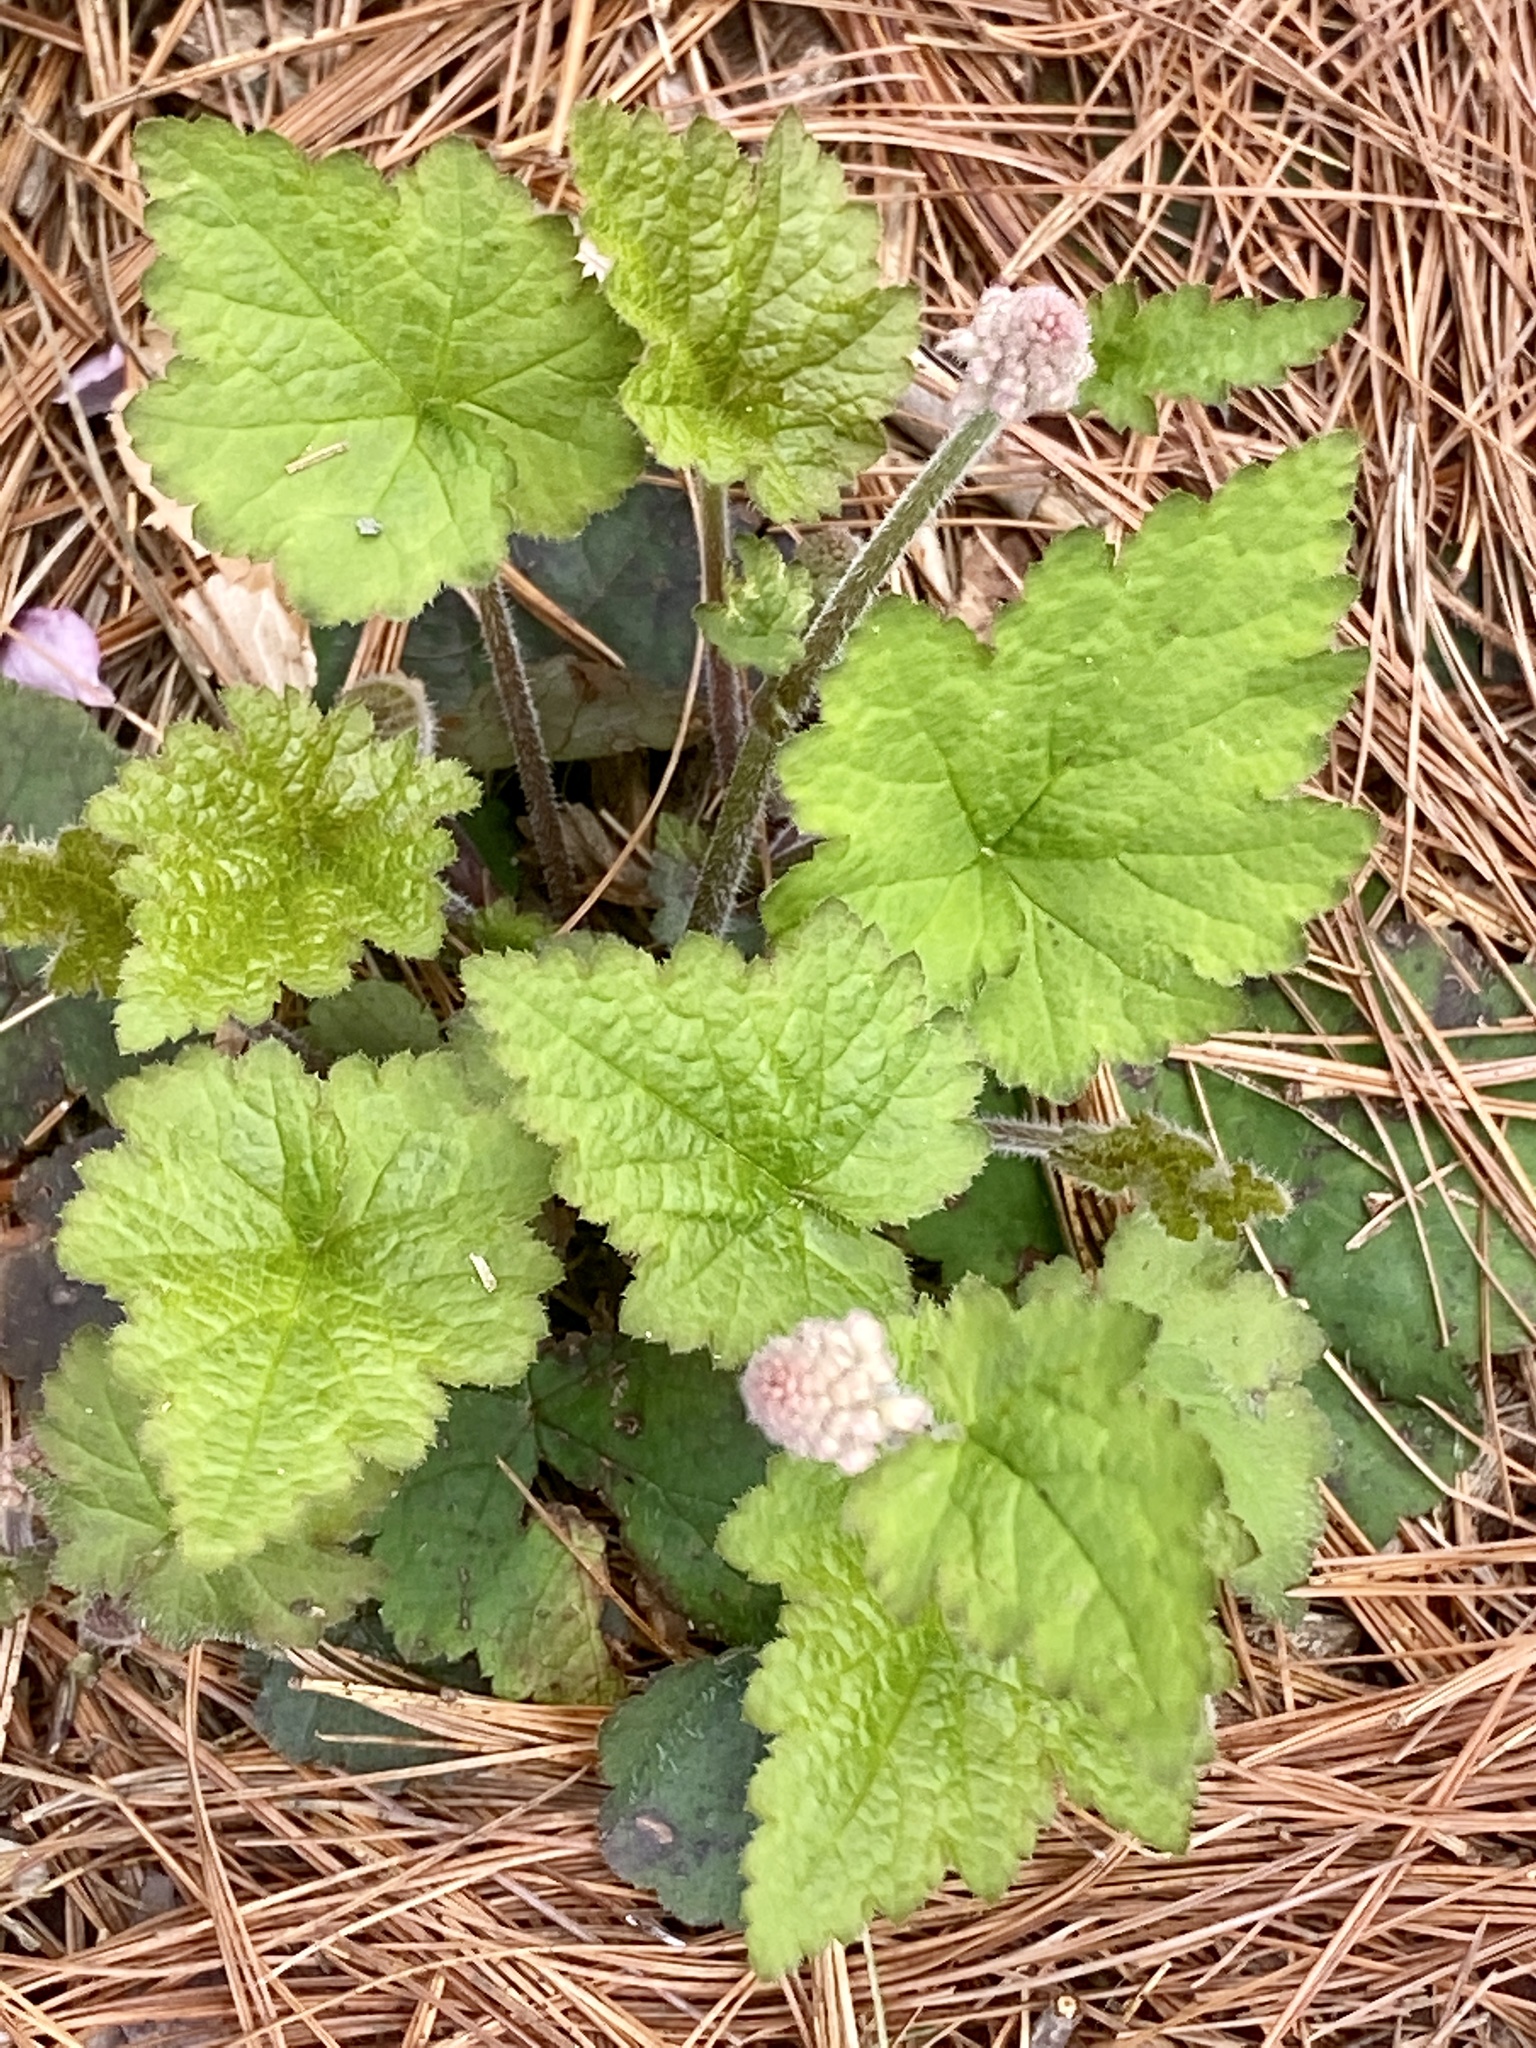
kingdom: Plantae
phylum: Tracheophyta
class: Magnoliopsida
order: Saxifragales
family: Saxifragaceae
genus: Tiarella
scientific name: Tiarella stolonifera
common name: Stoloniferous foamflower
